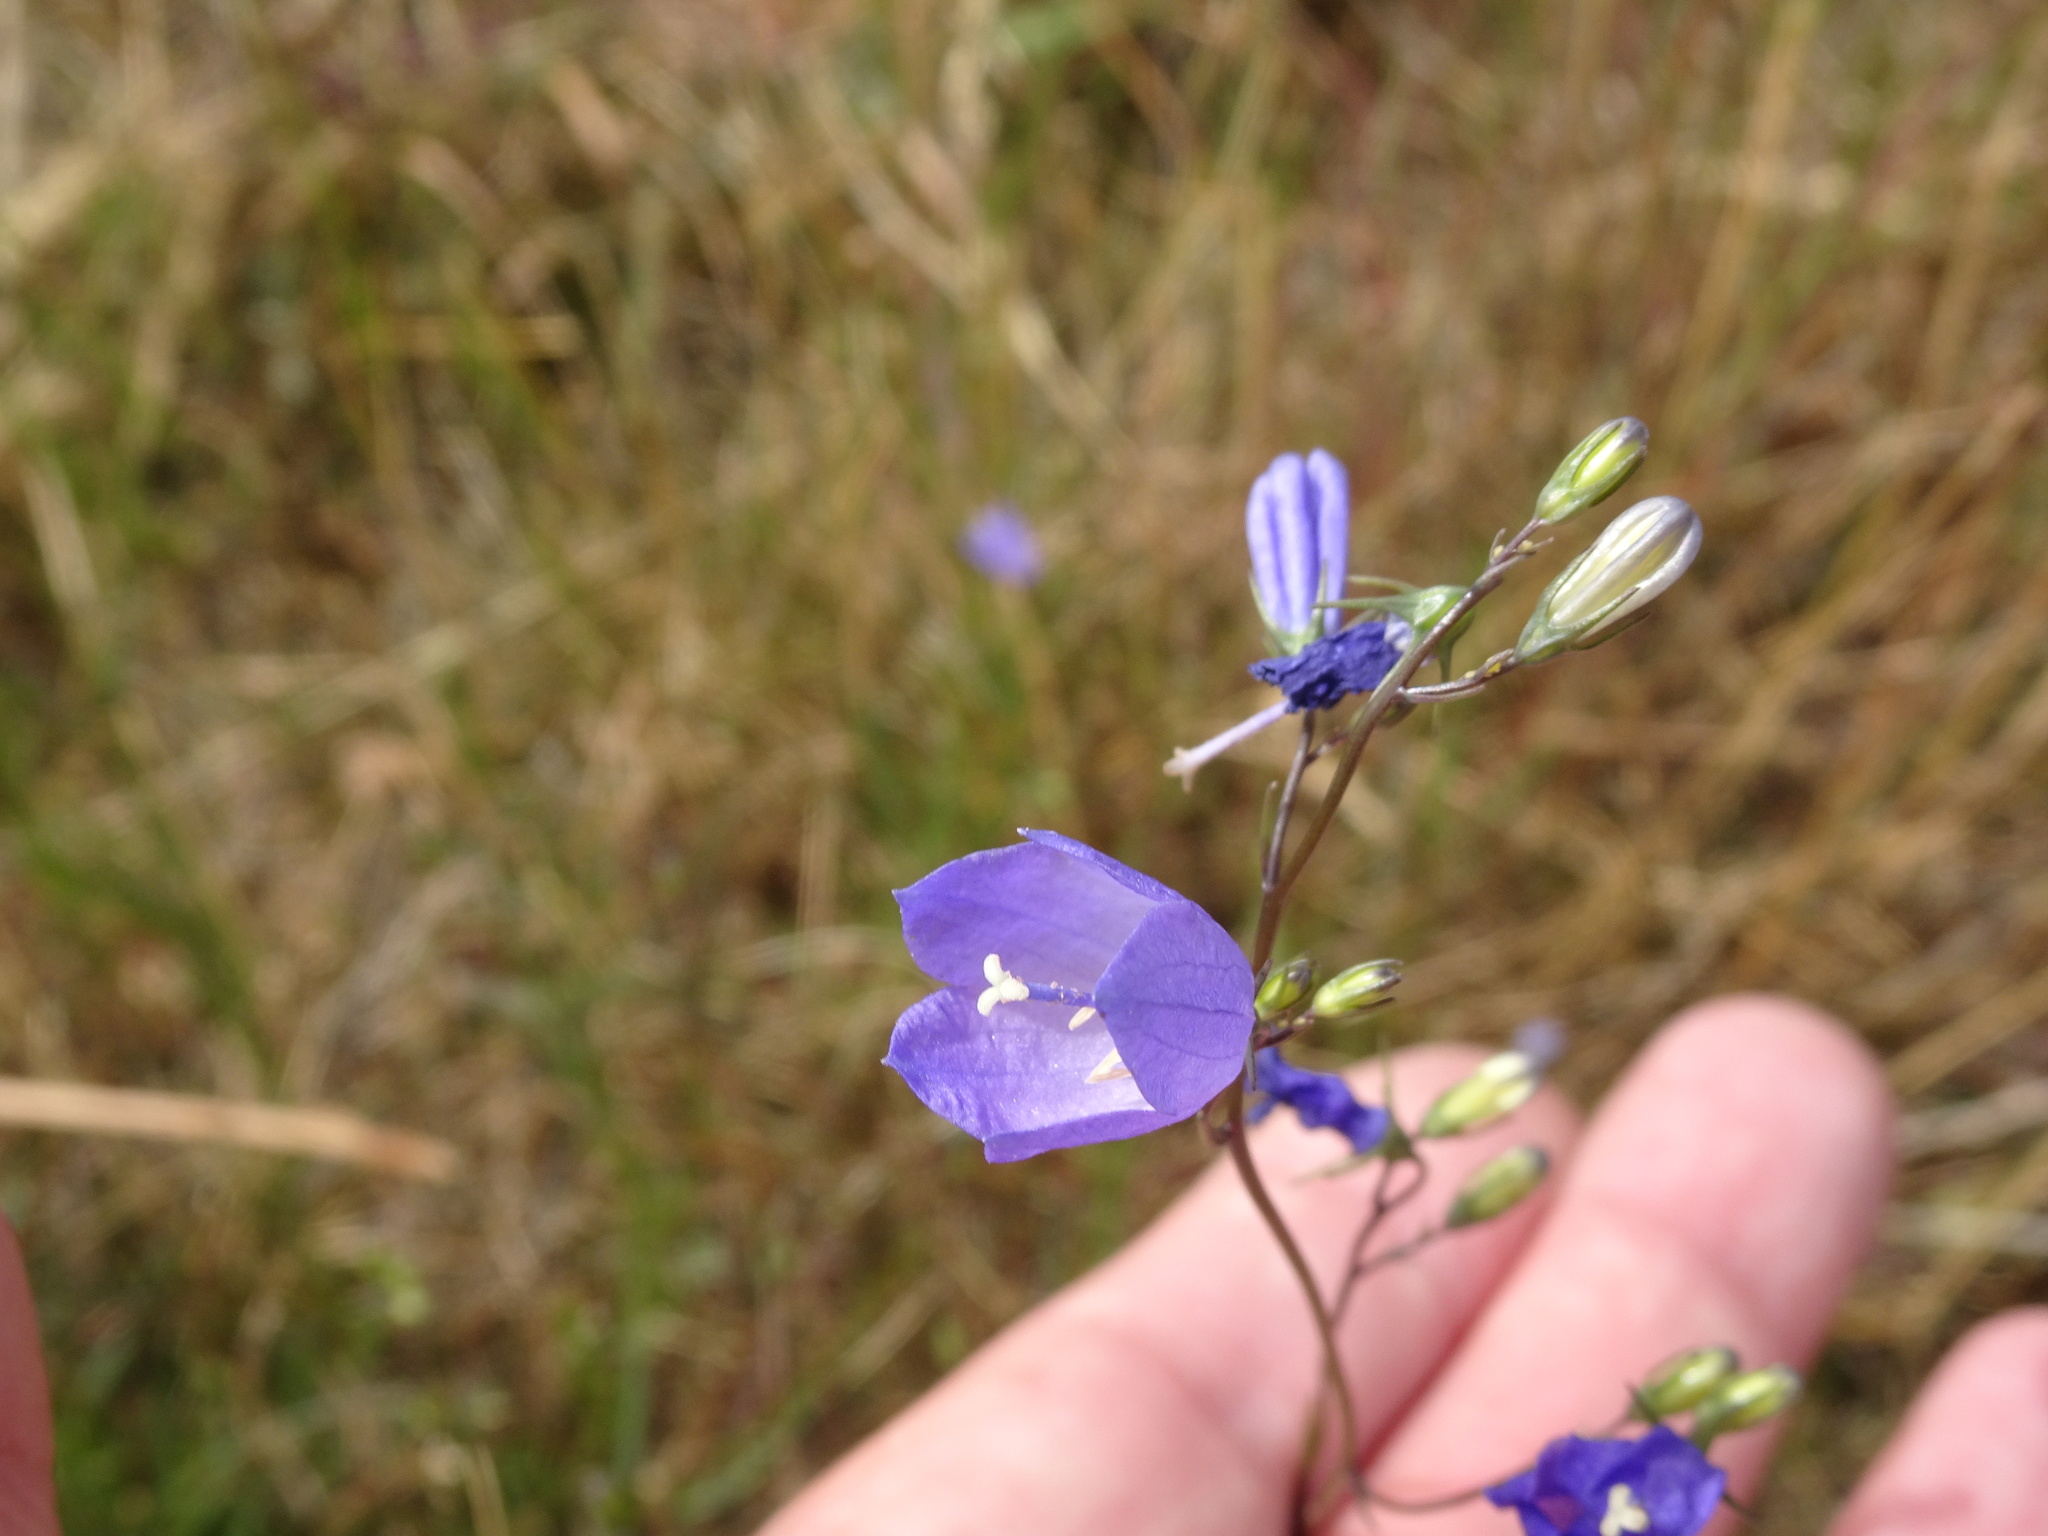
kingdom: Plantae
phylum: Tracheophyta
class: Magnoliopsida
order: Asterales
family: Campanulaceae
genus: Campanula
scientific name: Campanula rotundifolia
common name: Harebell
